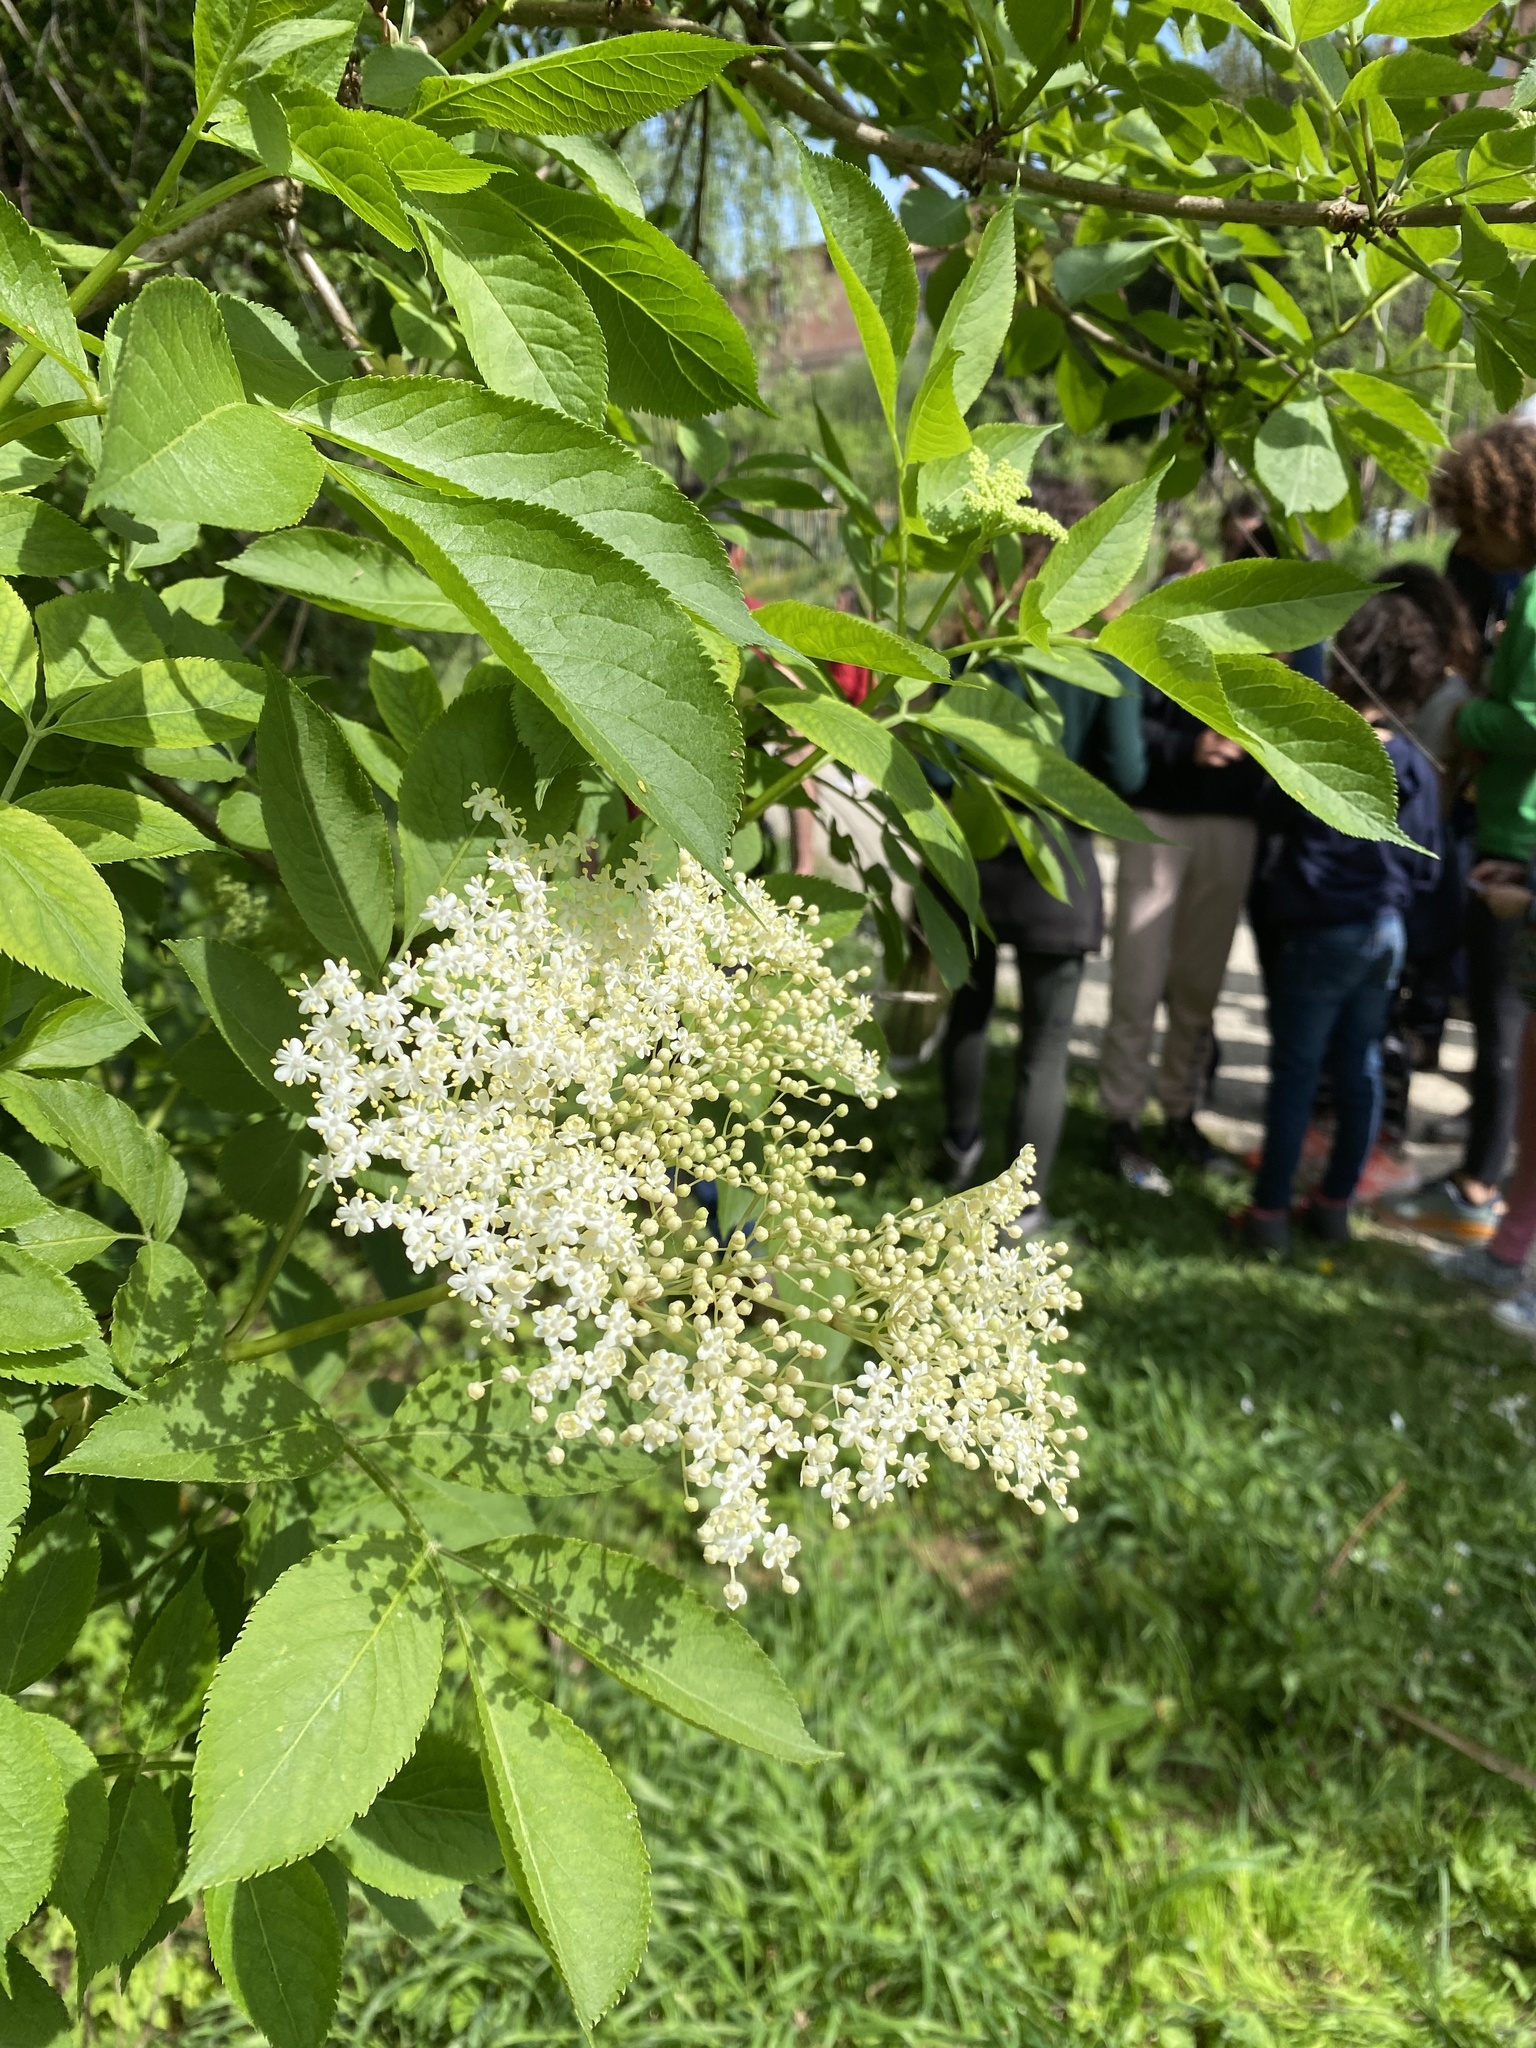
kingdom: Plantae
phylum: Tracheophyta
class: Magnoliopsida
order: Dipsacales
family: Viburnaceae
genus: Sambucus
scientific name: Sambucus nigra
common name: Elder
